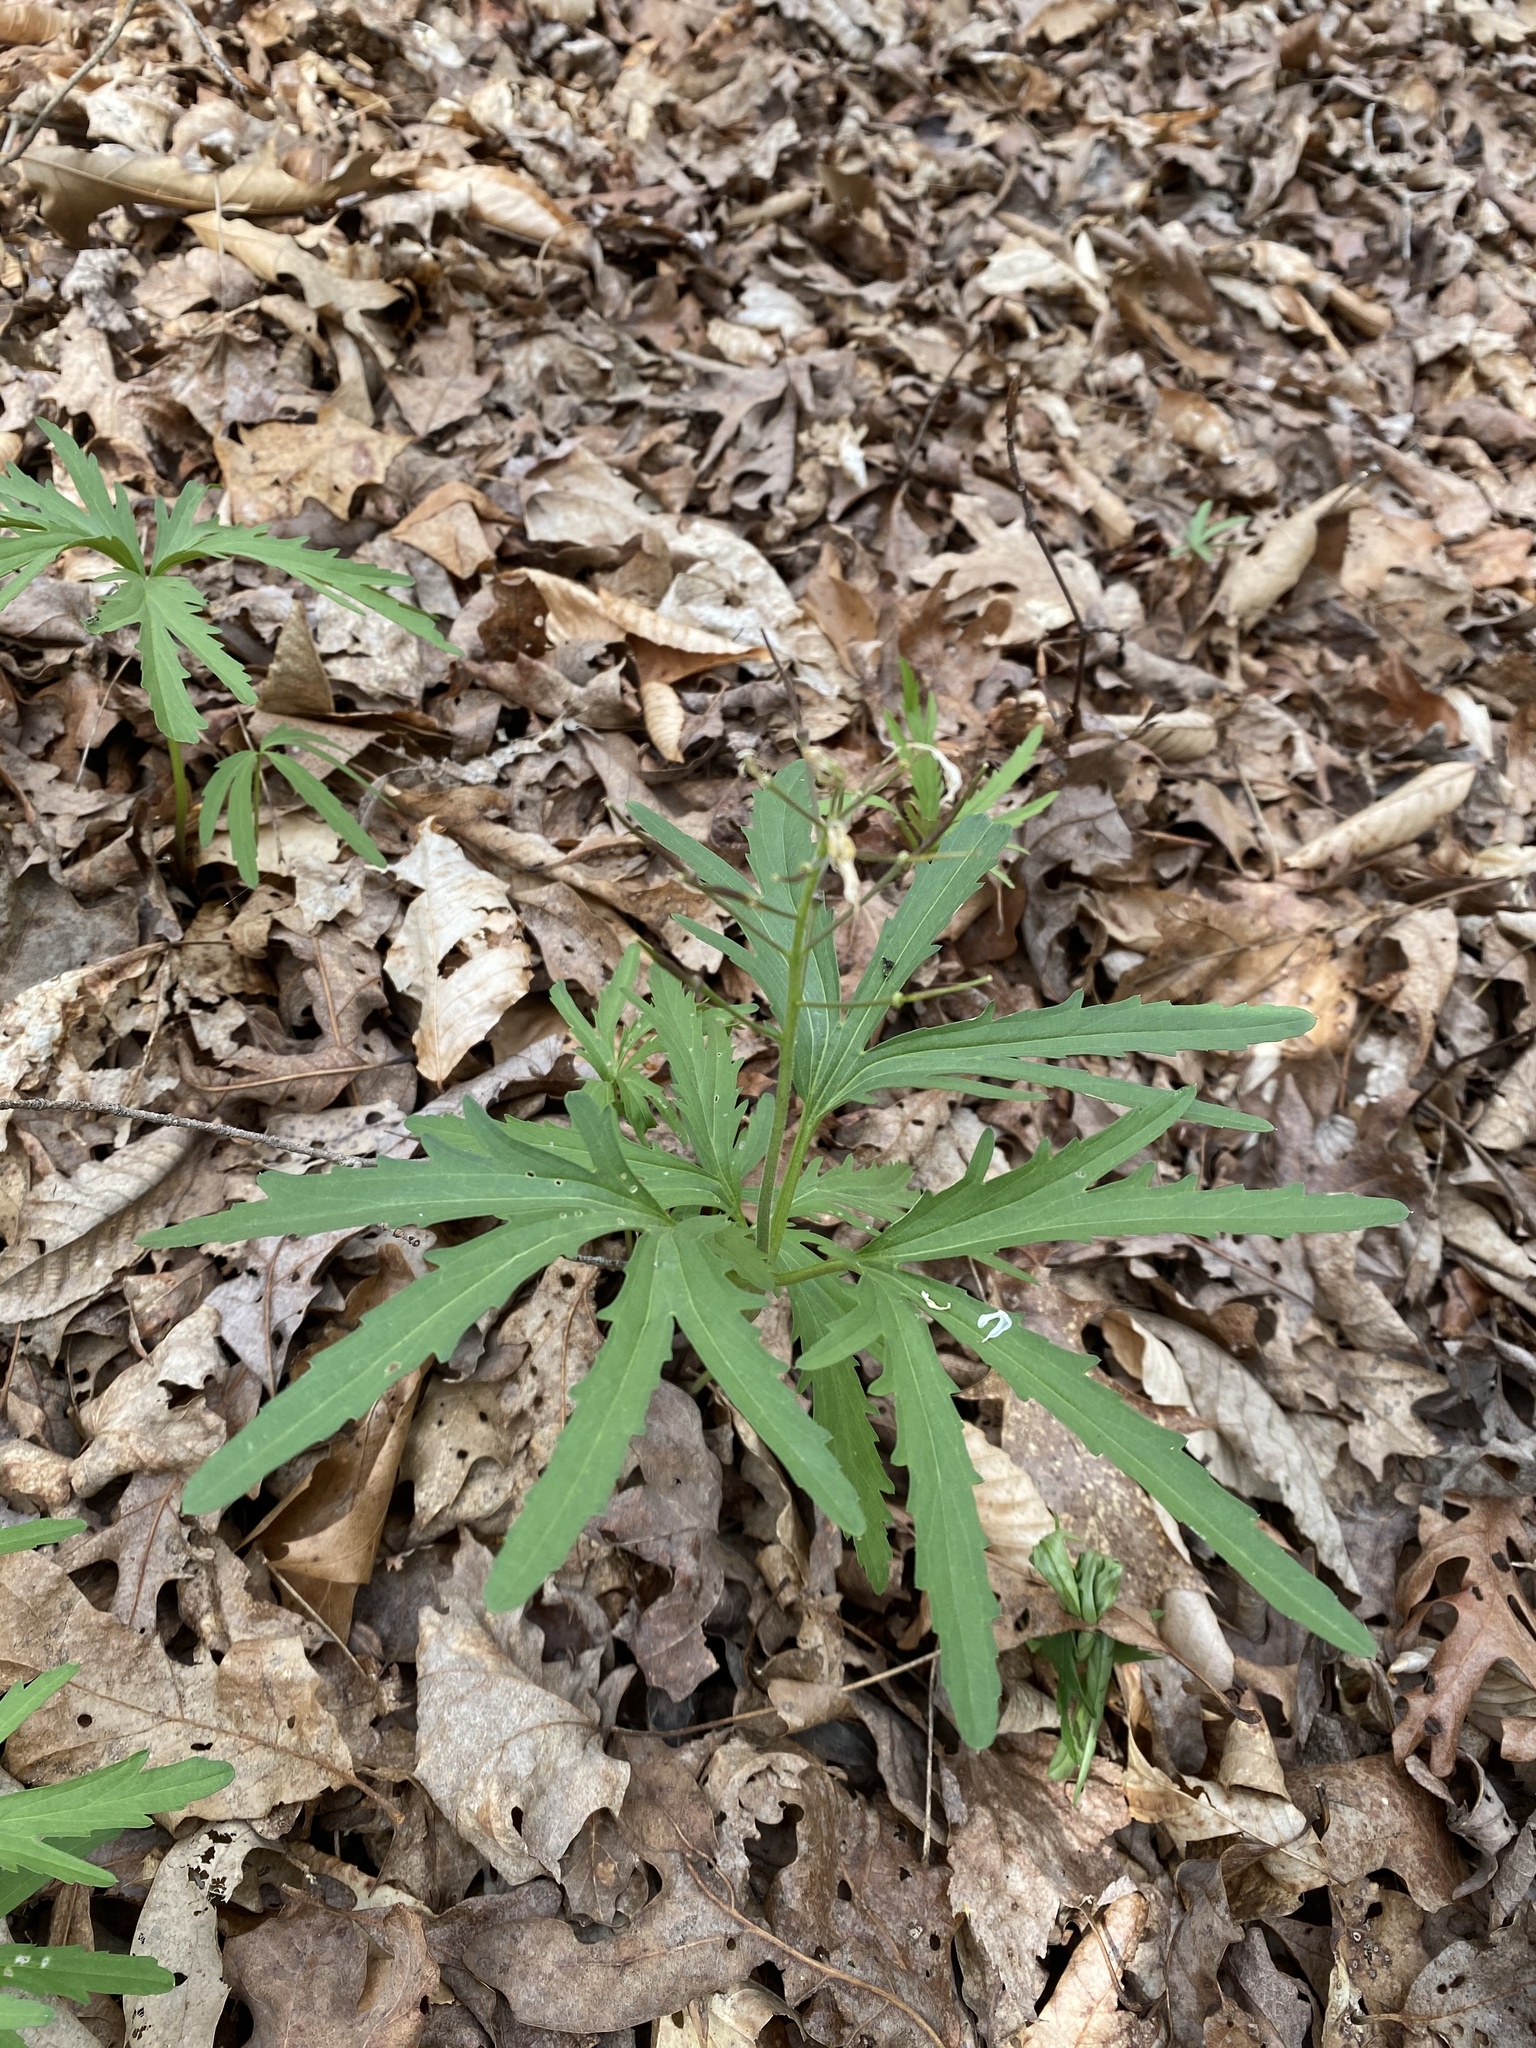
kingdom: Plantae
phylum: Tracheophyta
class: Magnoliopsida
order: Brassicales
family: Brassicaceae
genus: Cardamine
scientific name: Cardamine concatenata
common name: Cut-leaf toothcup
